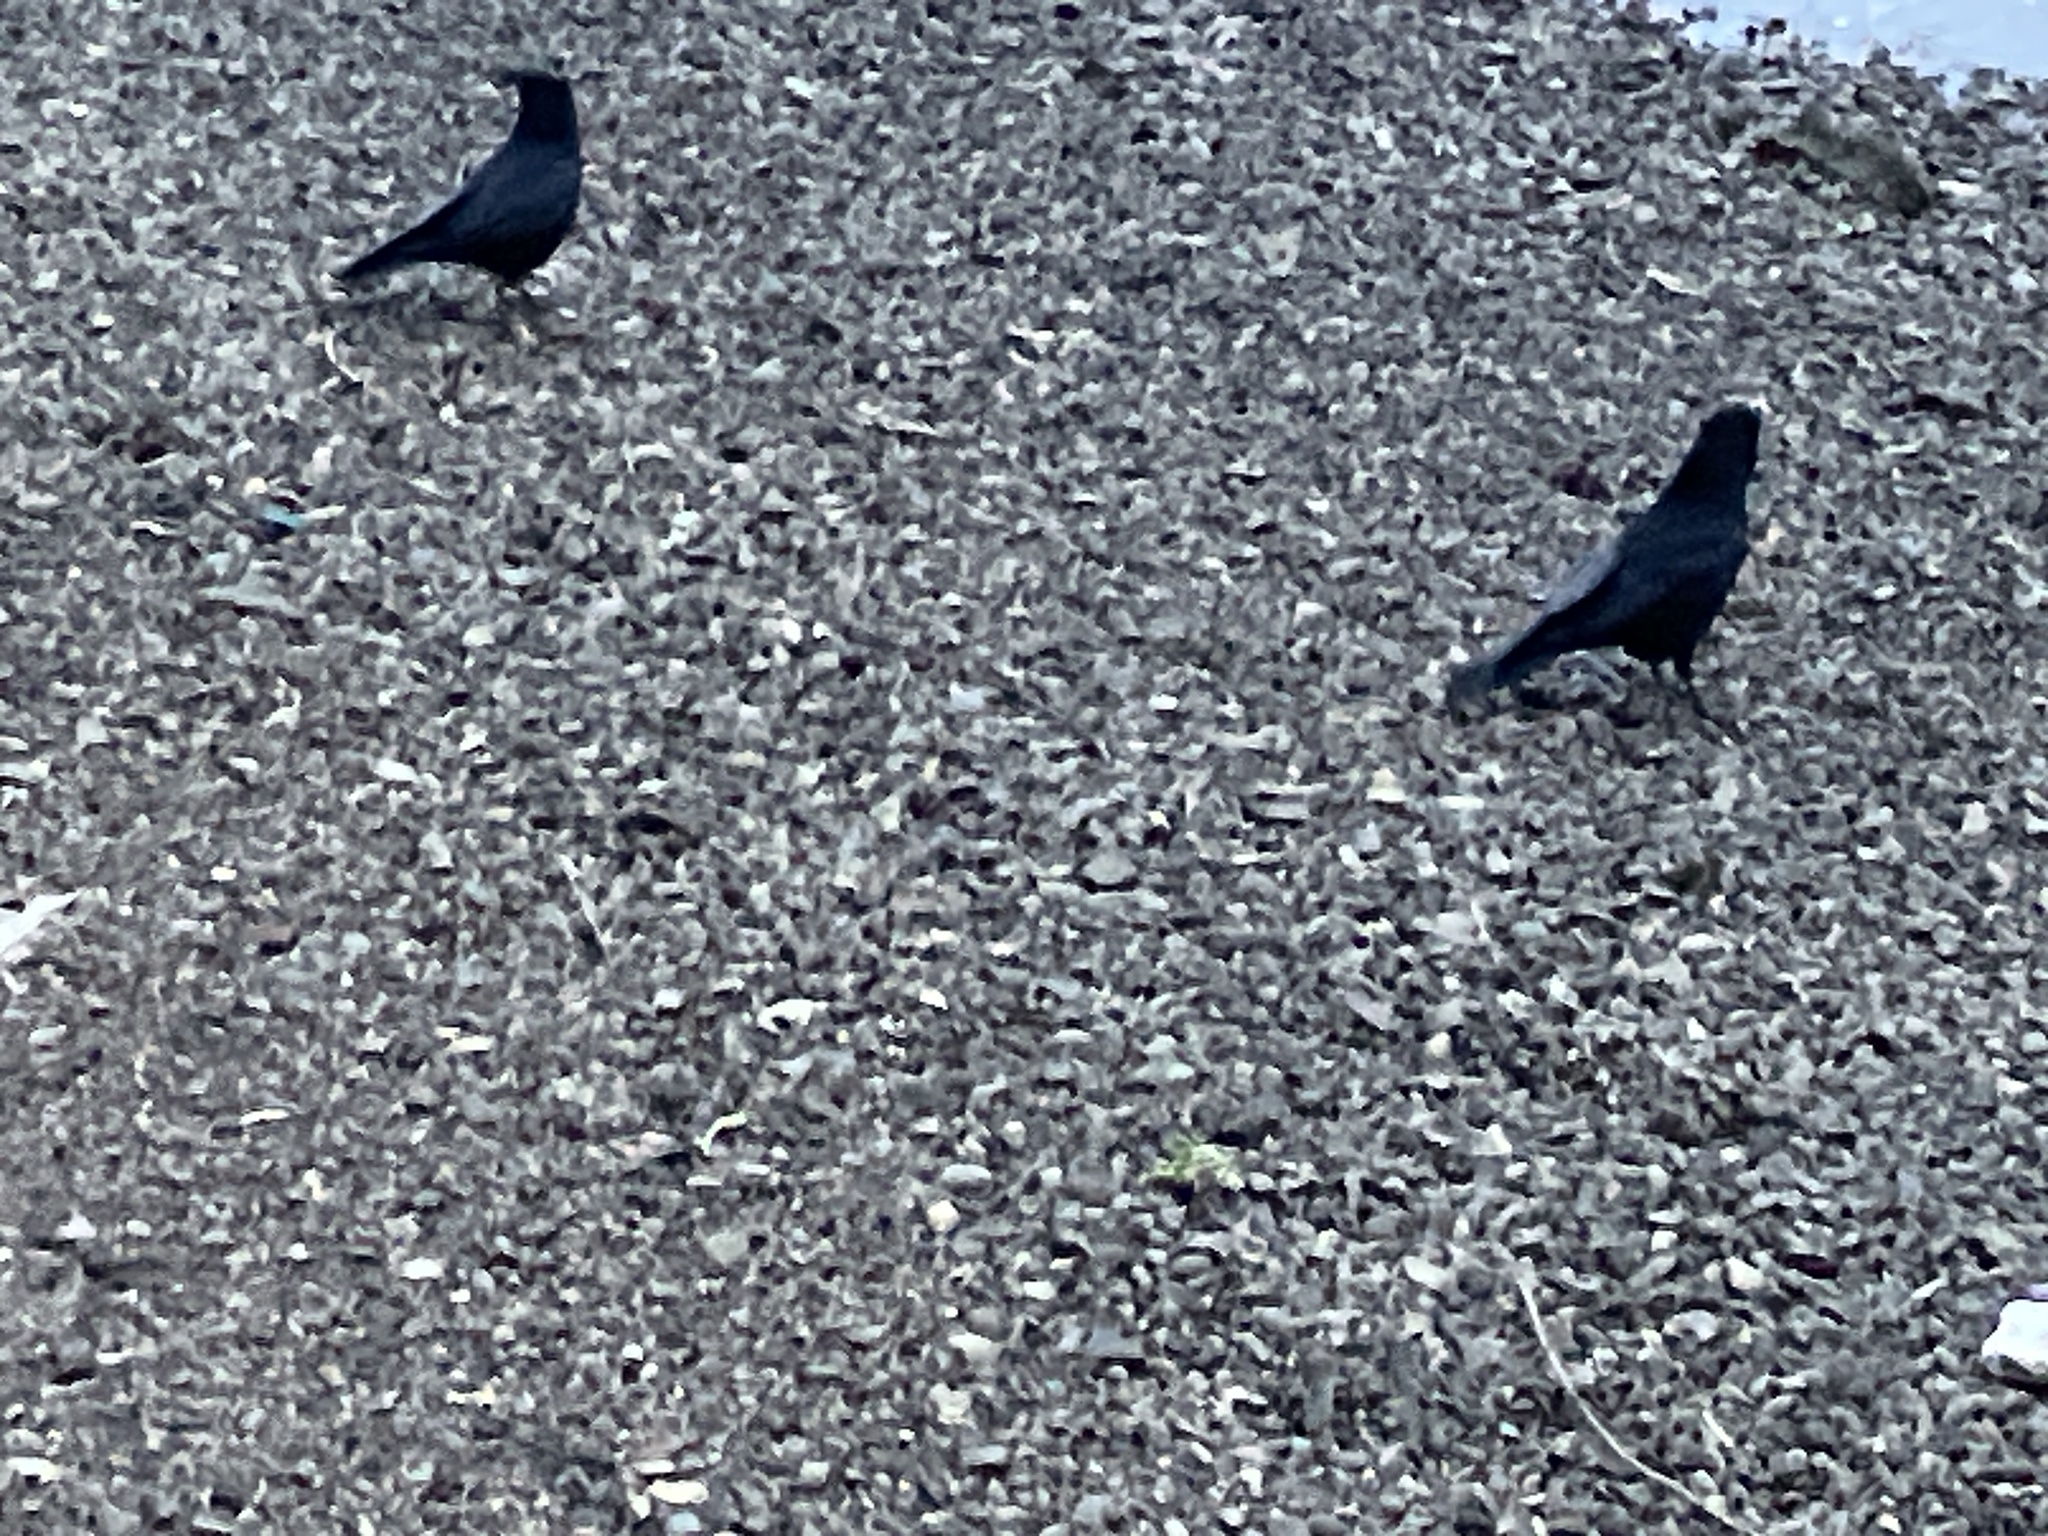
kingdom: Animalia
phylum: Chordata
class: Aves
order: Passeriformes
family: Corvidae
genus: Corvus
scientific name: Corvus corone
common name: Carrion crow
